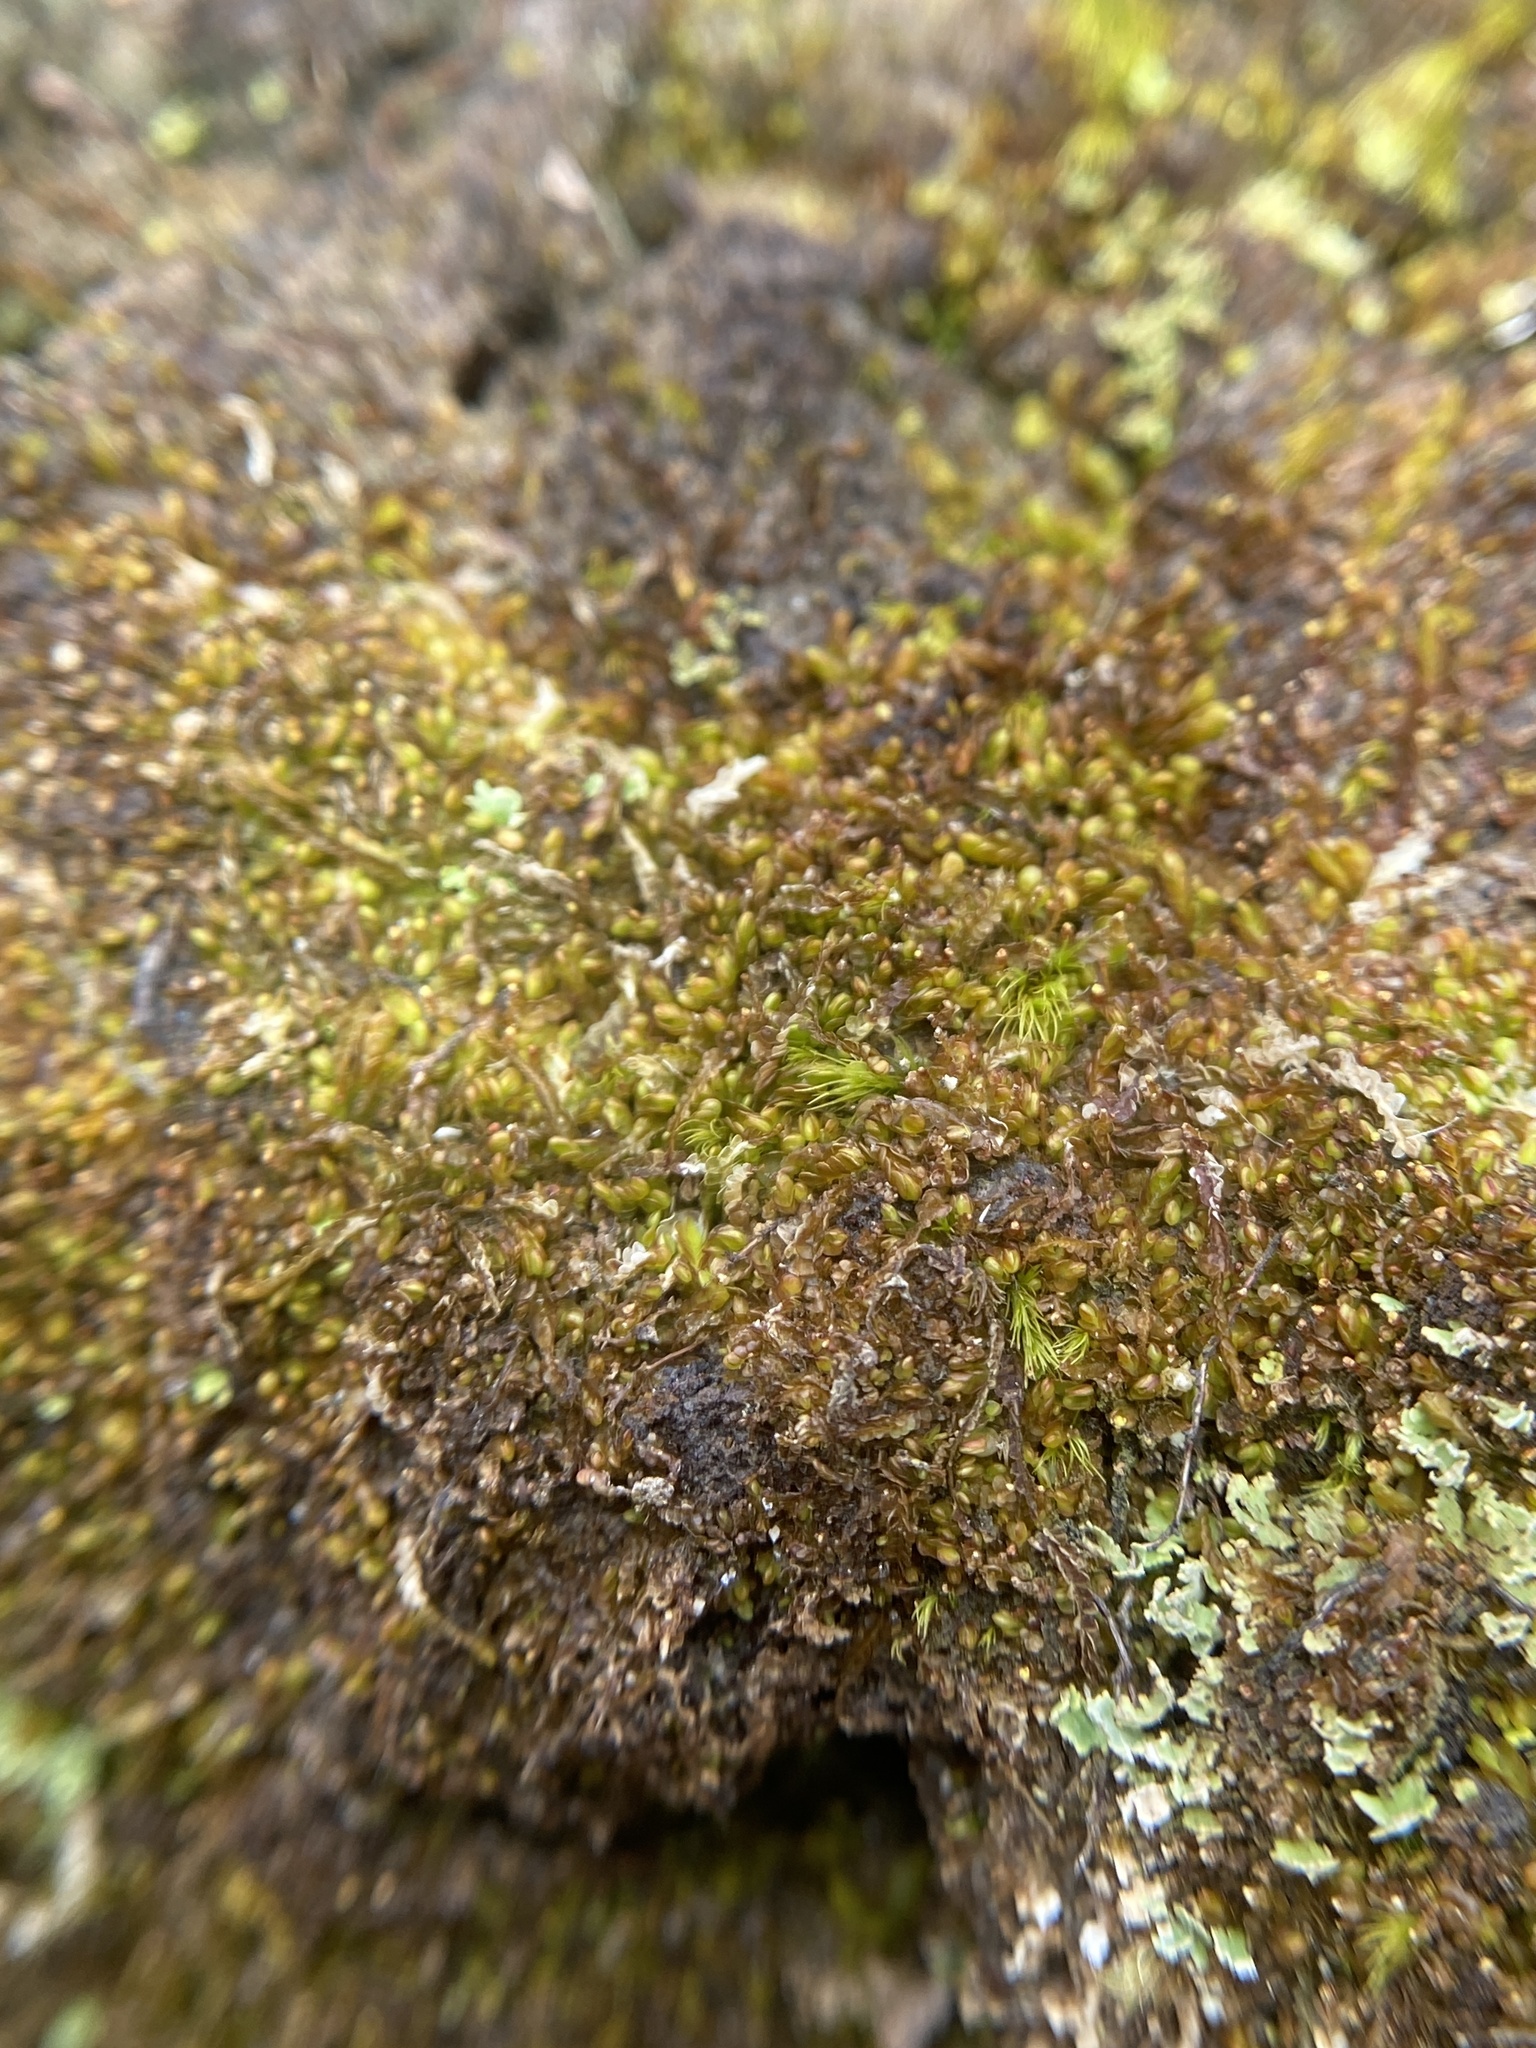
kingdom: Plantae
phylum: Marchantiophyta
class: Jungermanniopsida
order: Jungermanniales
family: Cephaloziaceae
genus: Odontoschisma
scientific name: Odontoschisma sphagni
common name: Bog-moss flapwort
